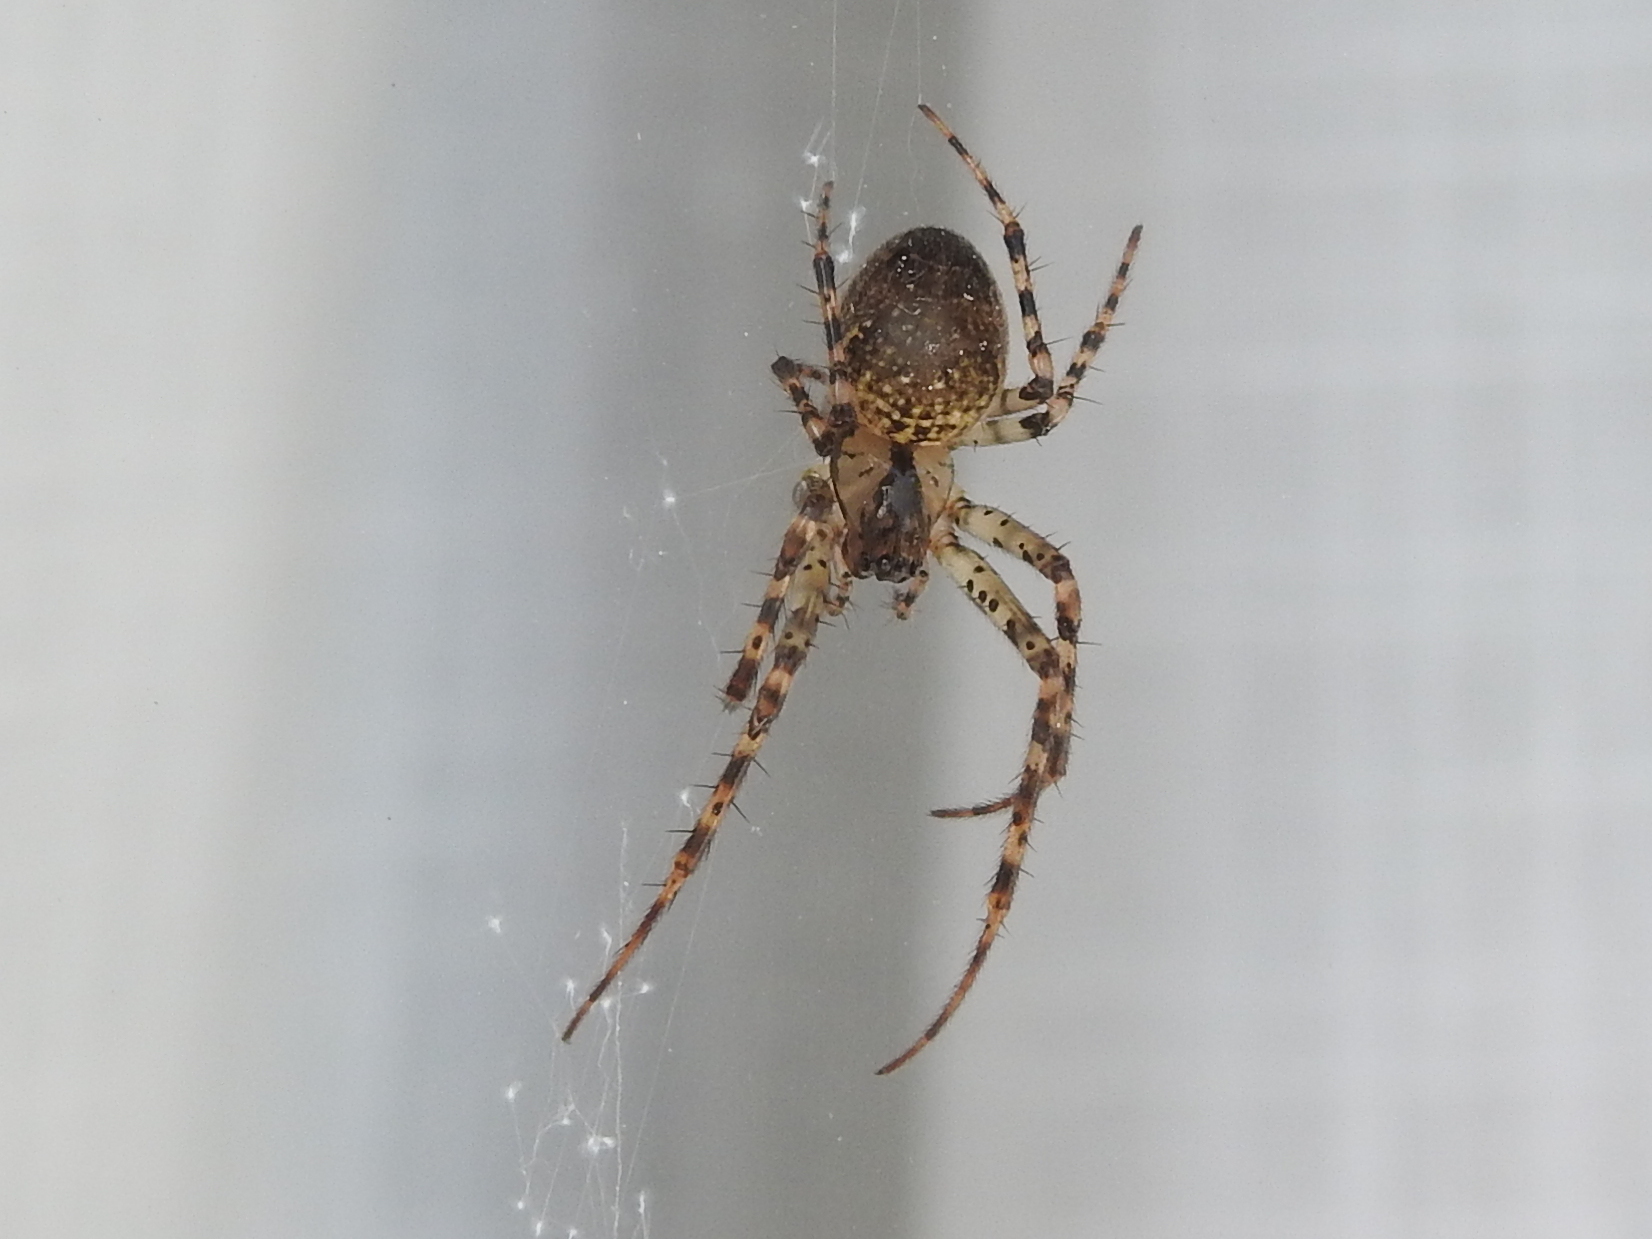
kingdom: Animalia
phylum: Arthropoda
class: Arachnida
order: Araneae
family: Tetragnathidae
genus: Metellina
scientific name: Metellina merianae
